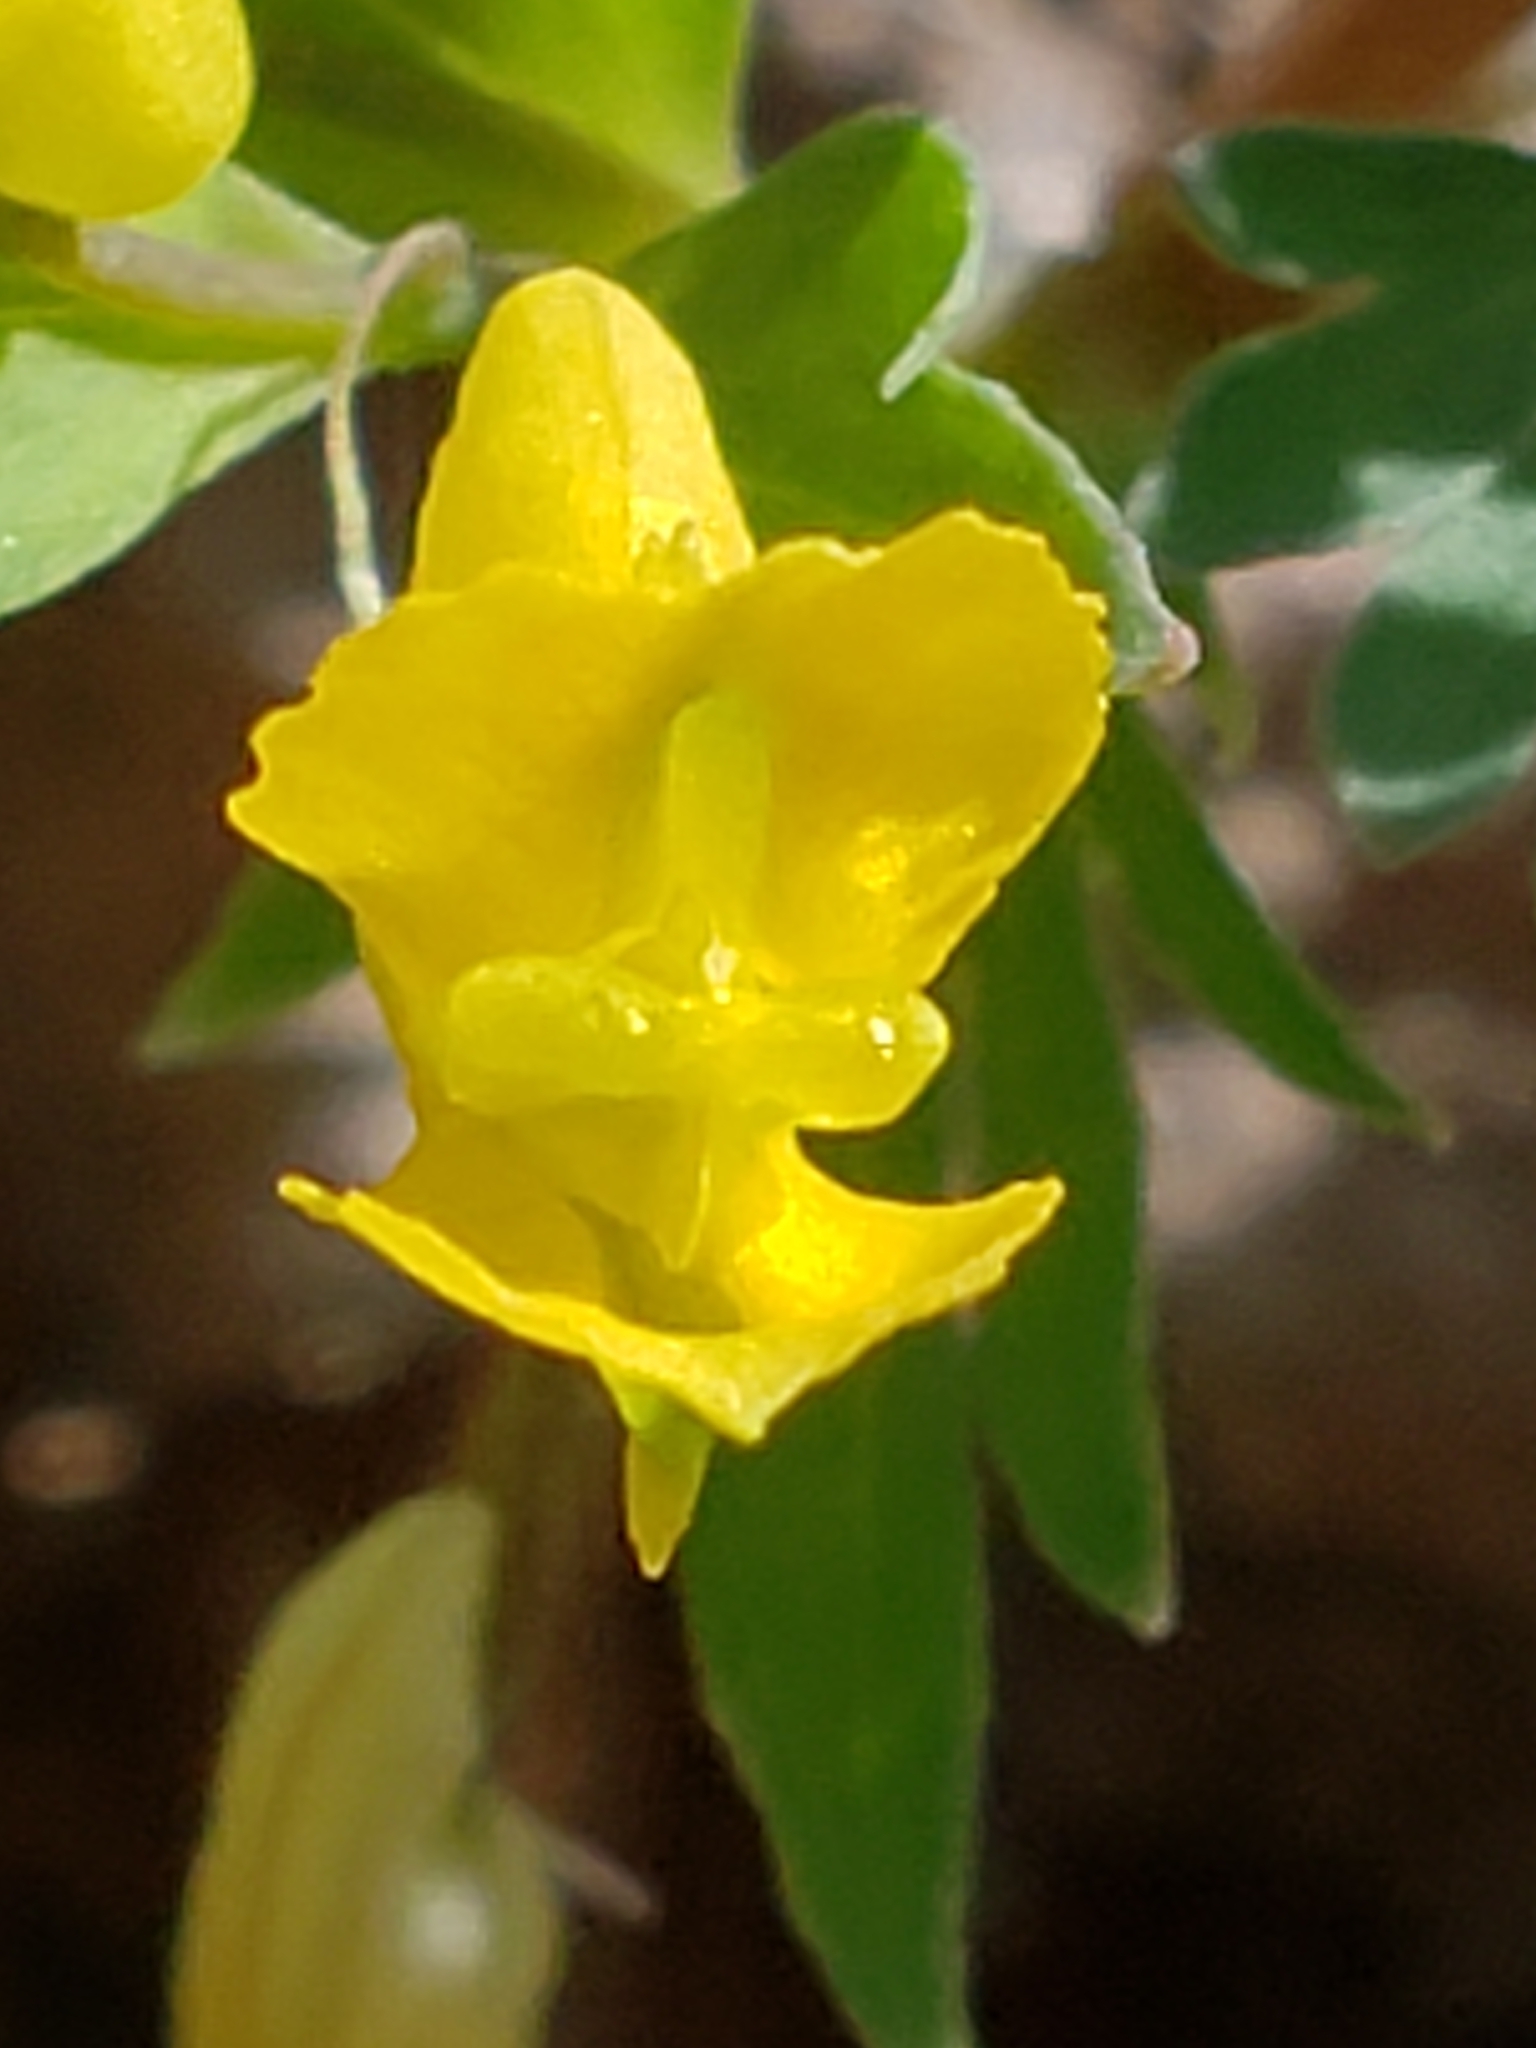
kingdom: Plantae
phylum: Tracheophyta
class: Magnoliopsida
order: Ranunculales
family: Papaveraceae
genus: Corydalis
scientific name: Corydalis flavula
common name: Yellow corydalis
